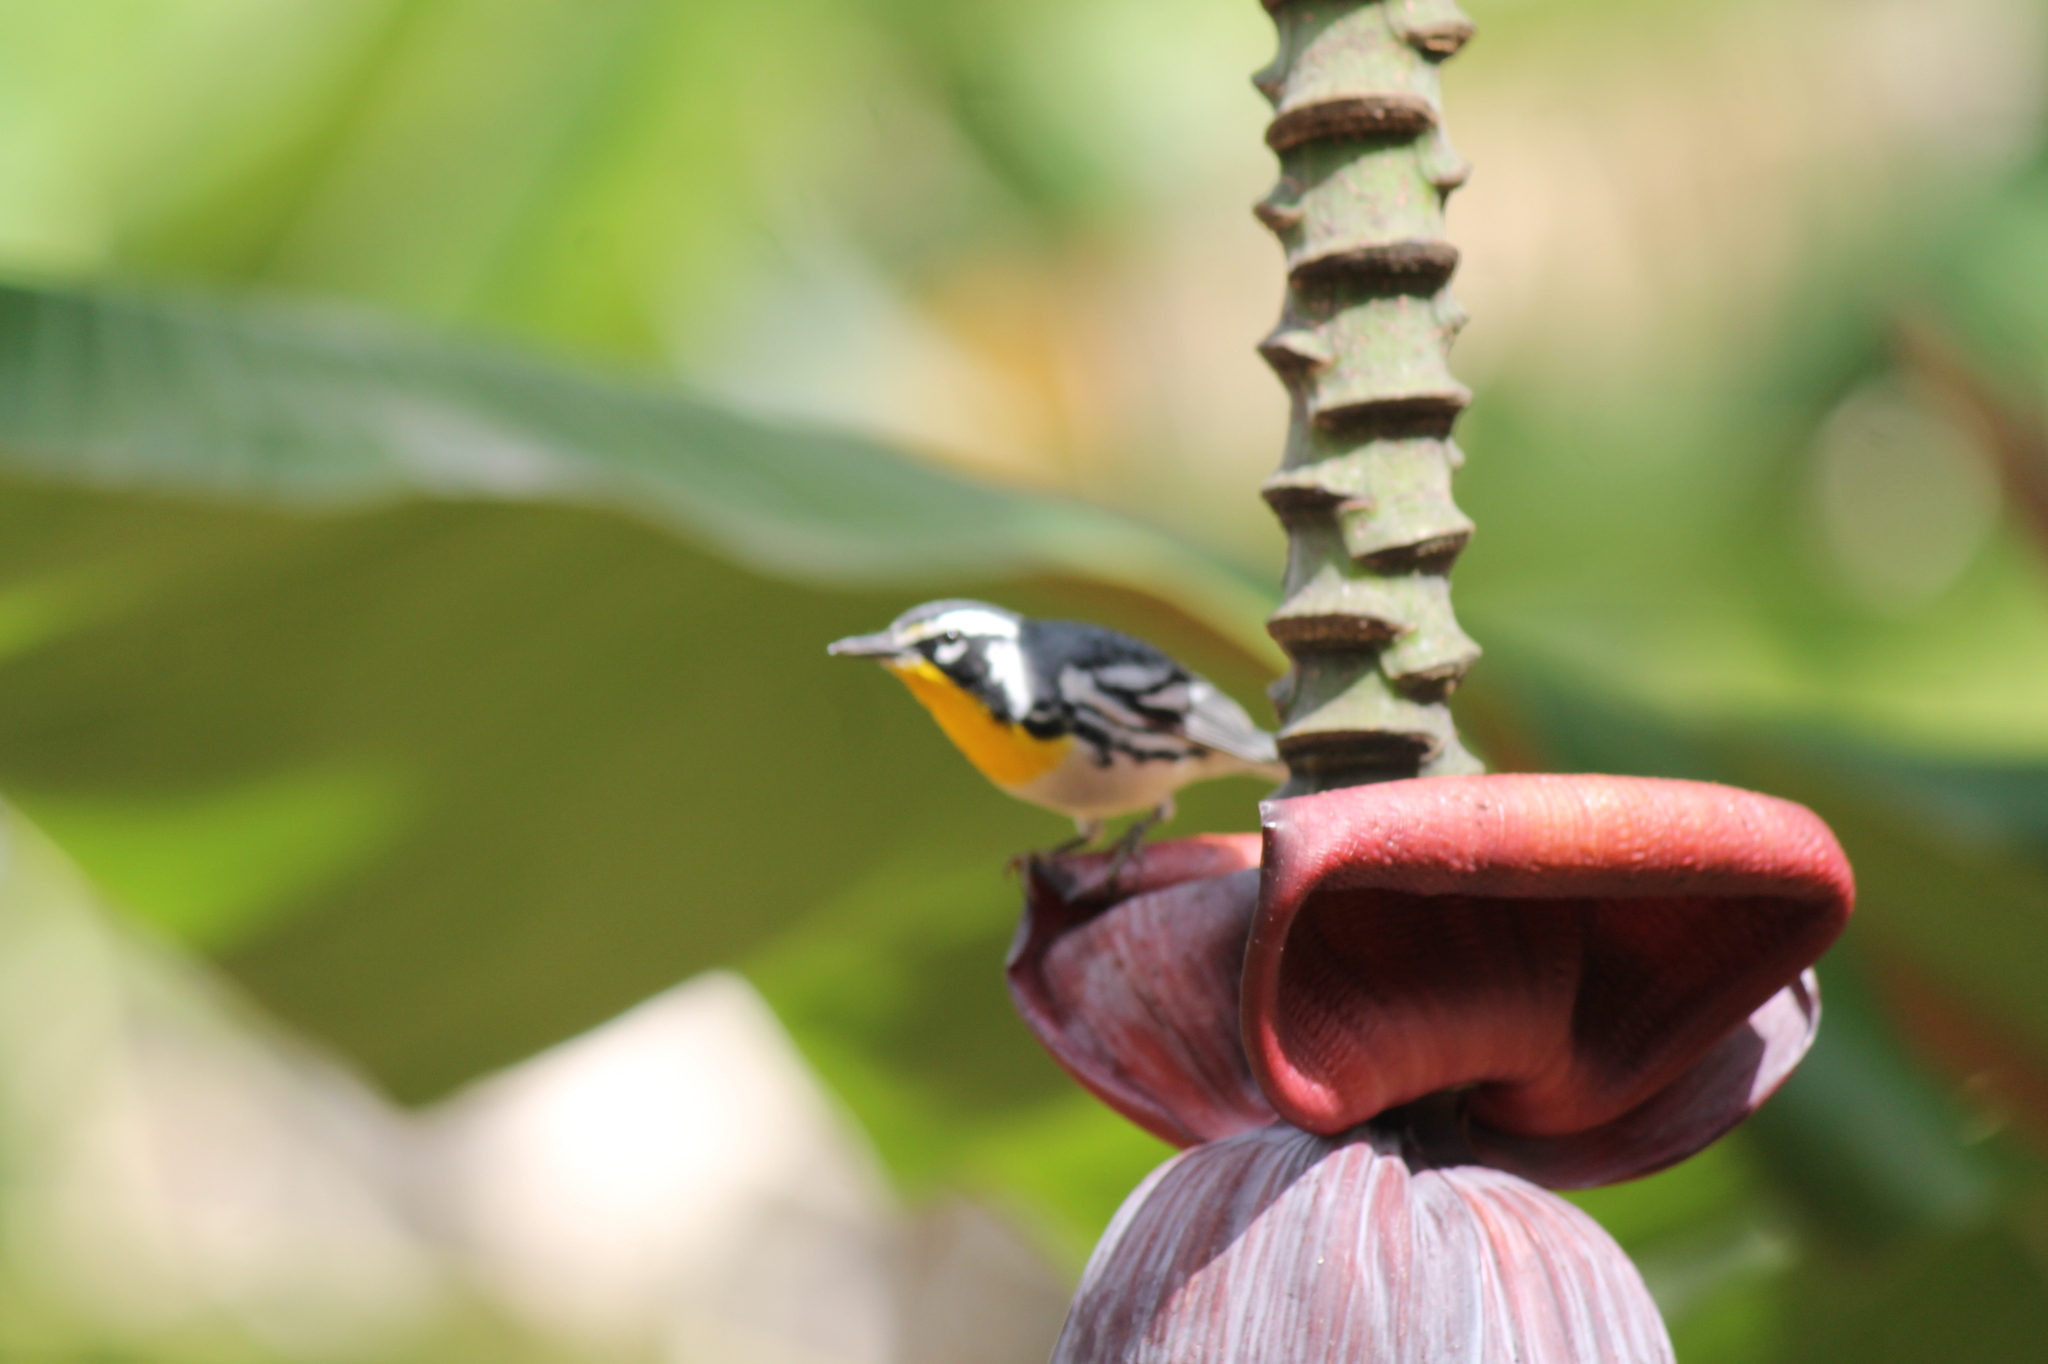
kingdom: Animalia
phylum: Chordata
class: Aves
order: Passeriformes
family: Parulidae
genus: Setophaga
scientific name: Setophaga dominica
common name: Yellow-throated warbler
